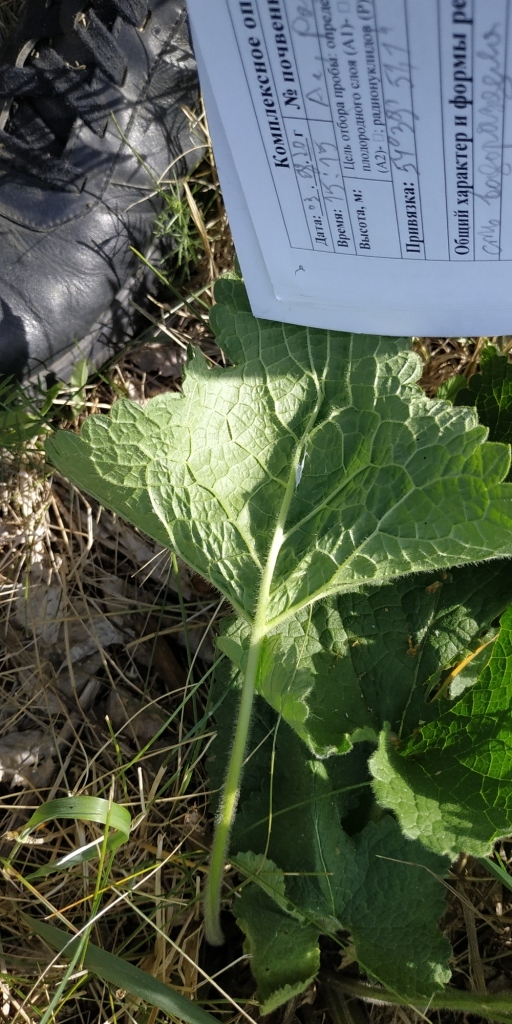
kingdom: Plantae
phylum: Tracheophyta
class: Magnoliopsida
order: Lamiales
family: Lamiaceae
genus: Phlomoides
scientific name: Phlomoides tuberosa
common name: Tuberous jerusalem sage
